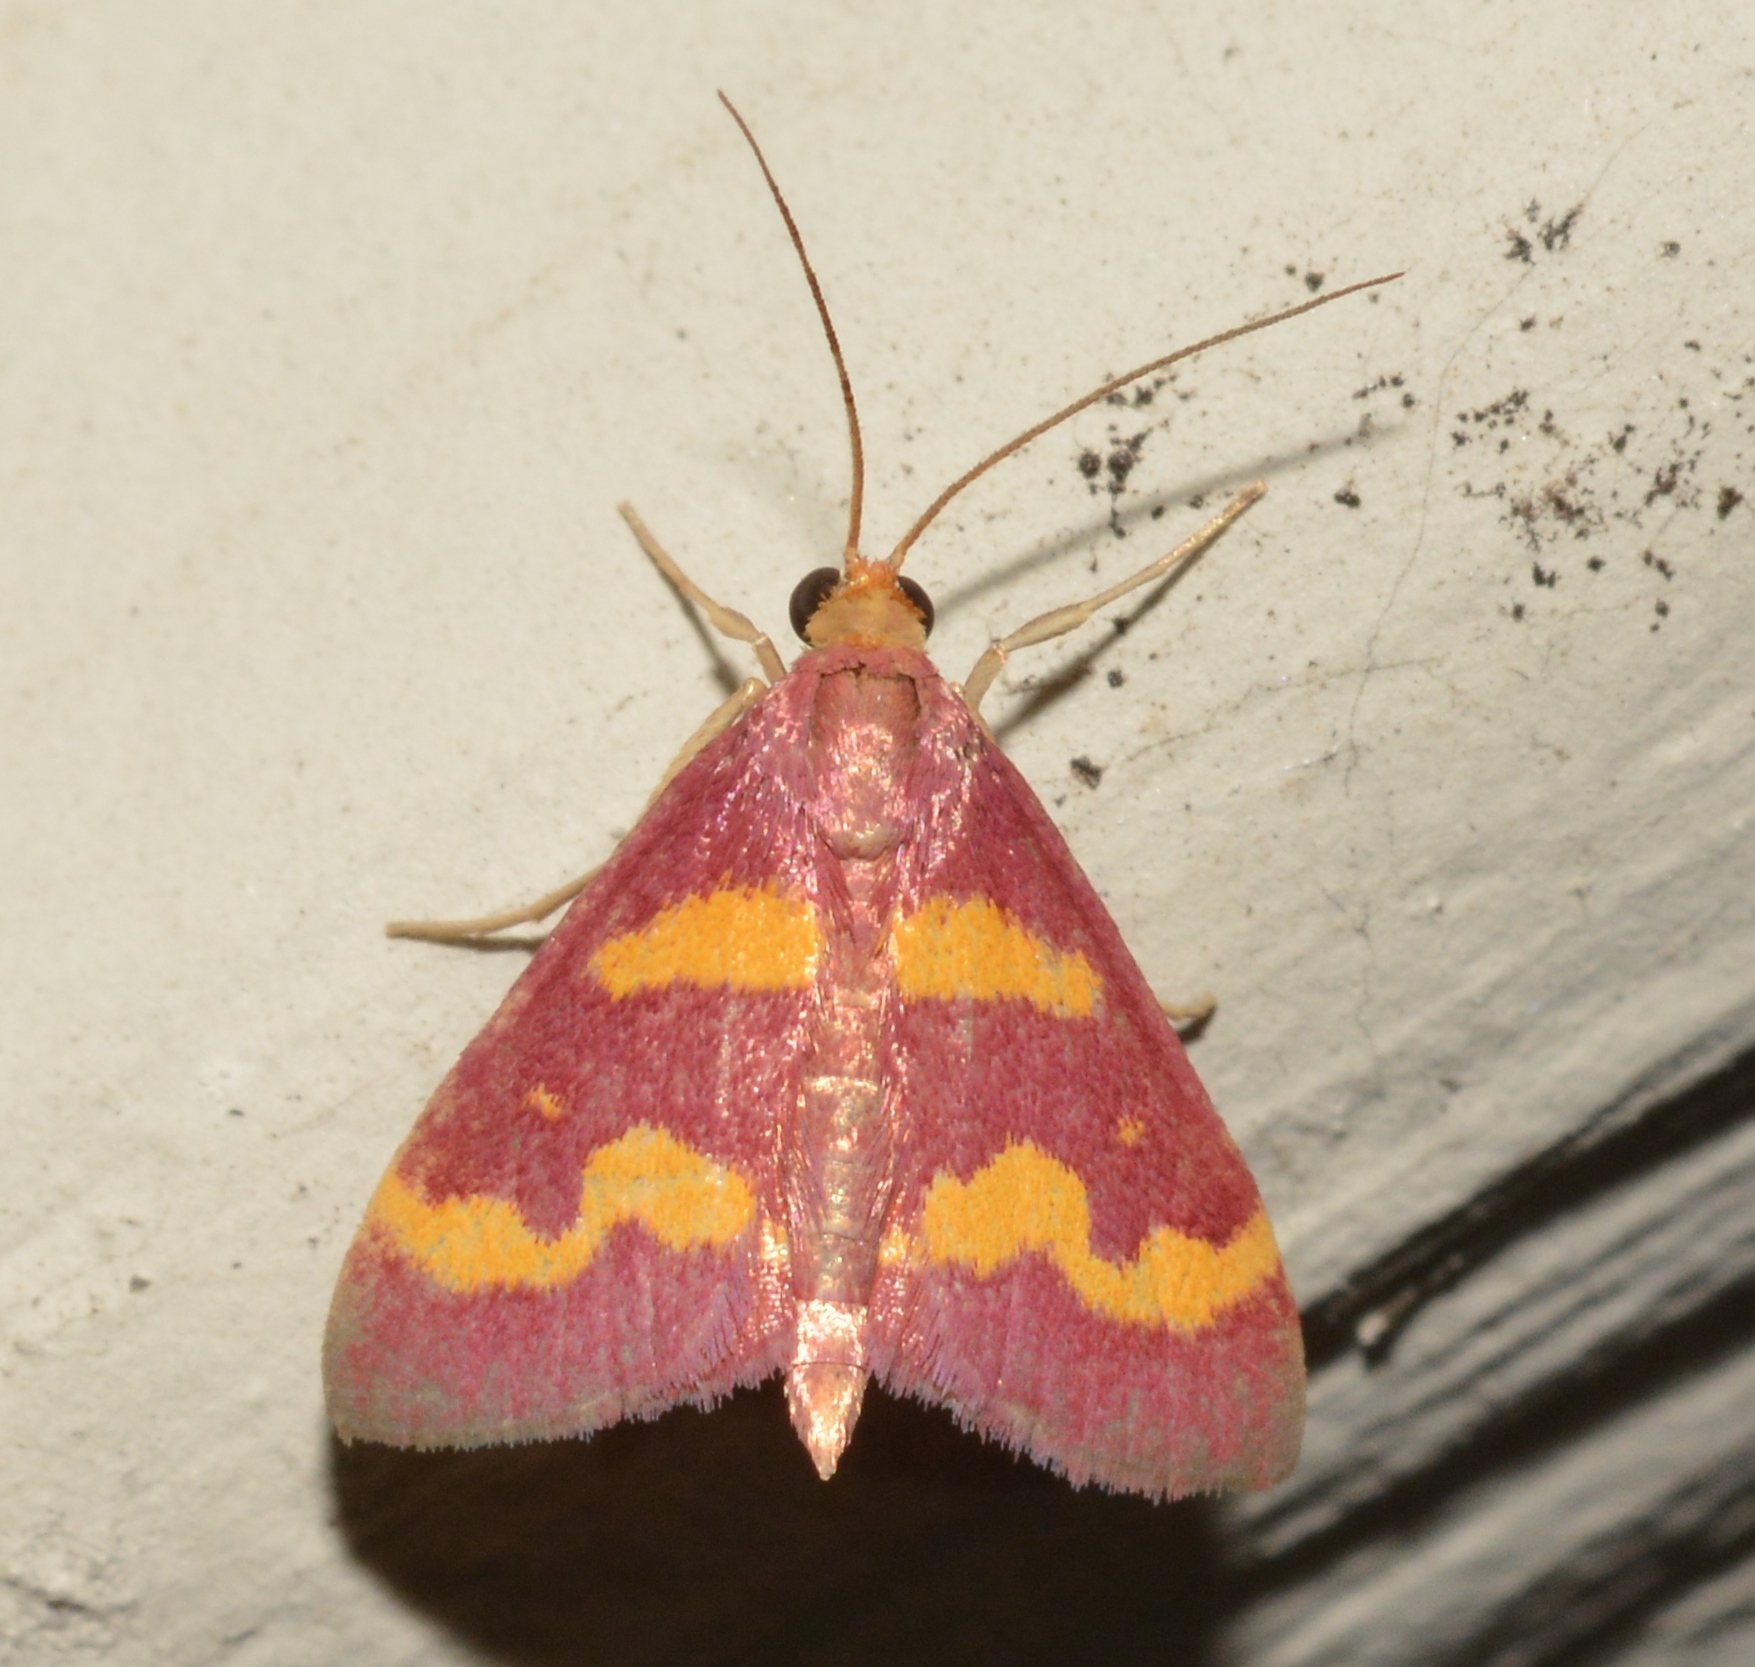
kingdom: Animalia
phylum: Arthropoda
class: Insecta
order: Lepidoptera
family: Crambidae
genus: Pyrausta
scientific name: Pyrausta tyralis
